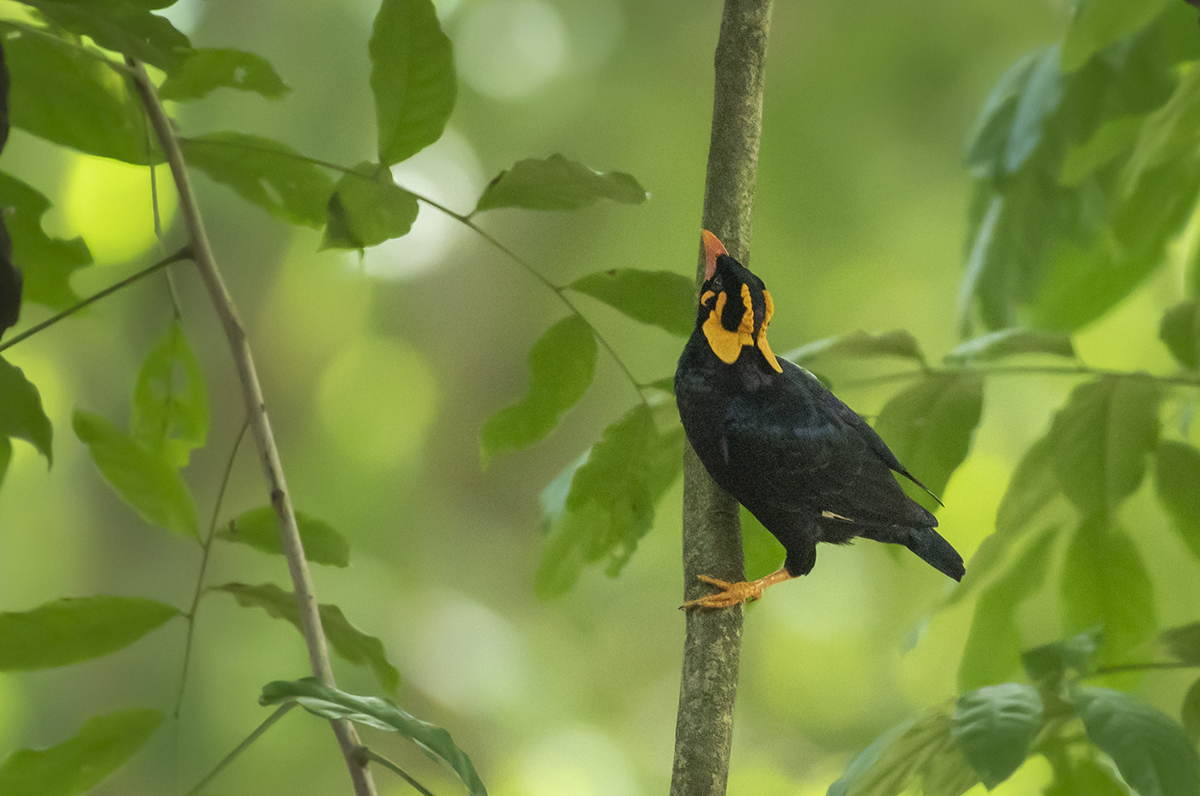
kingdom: Animalia
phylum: Chordata
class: Aves
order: Passeriformes
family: Sturnidae
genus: Gracula
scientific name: Gracula indica
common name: Southern hill myna
